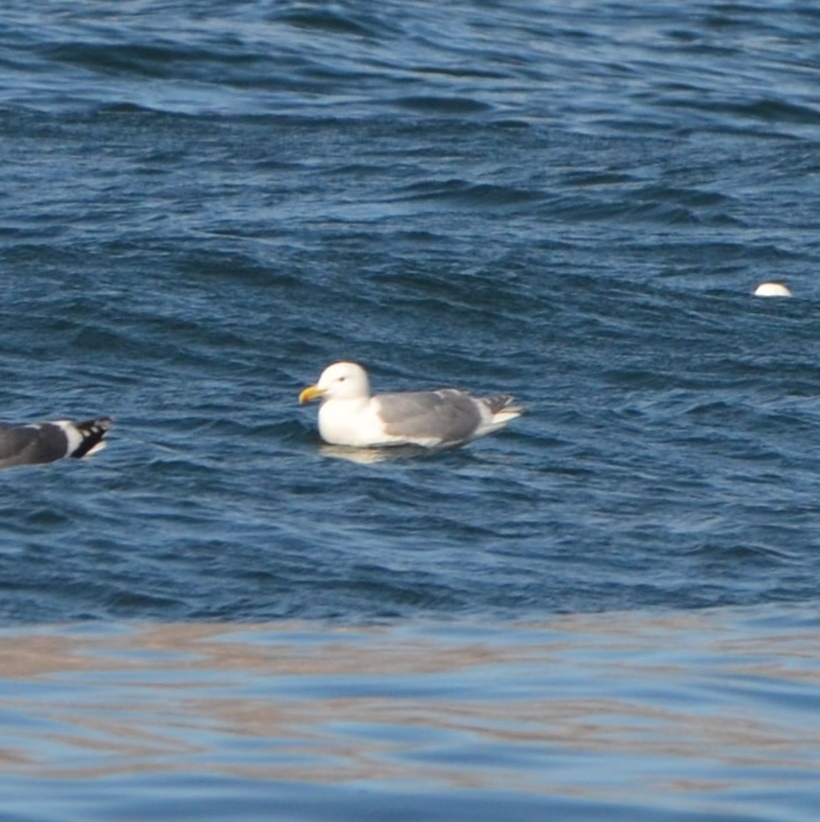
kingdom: Animalia
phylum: Chordata
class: Aves
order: Charadriiformes
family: Laridae
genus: Larus
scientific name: Larus glaucescens
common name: Glaucous-winged gull
